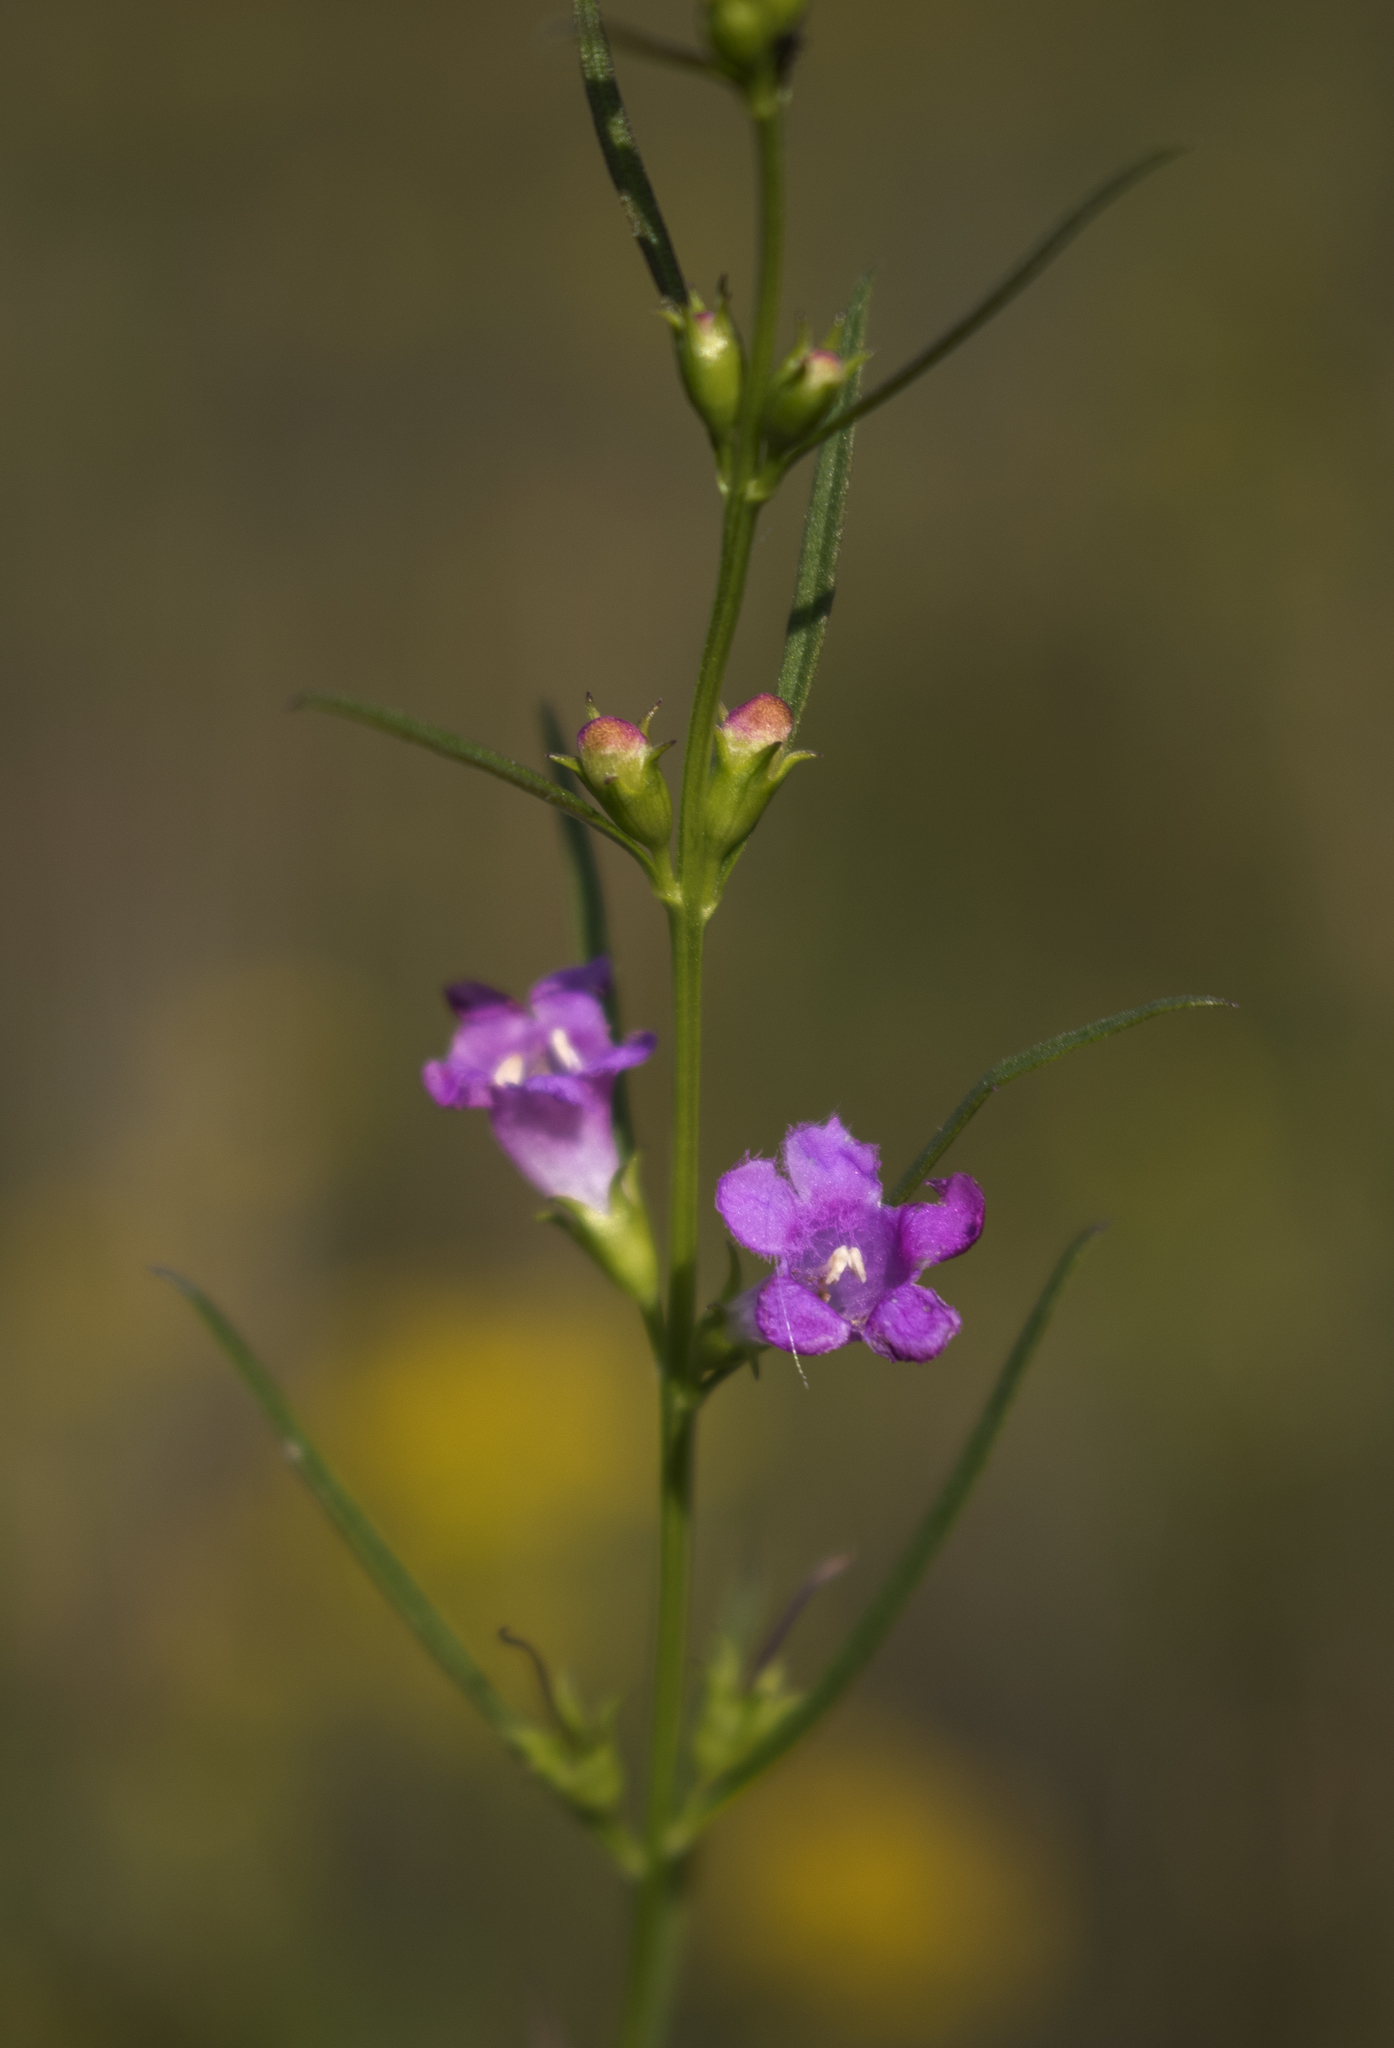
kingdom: Plantae
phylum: Tracheophyta
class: Magnoliopsida
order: Lamiales
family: Orobanchaceae
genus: Agalinis
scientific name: Agalinis purpurea
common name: Purple false foxglove
